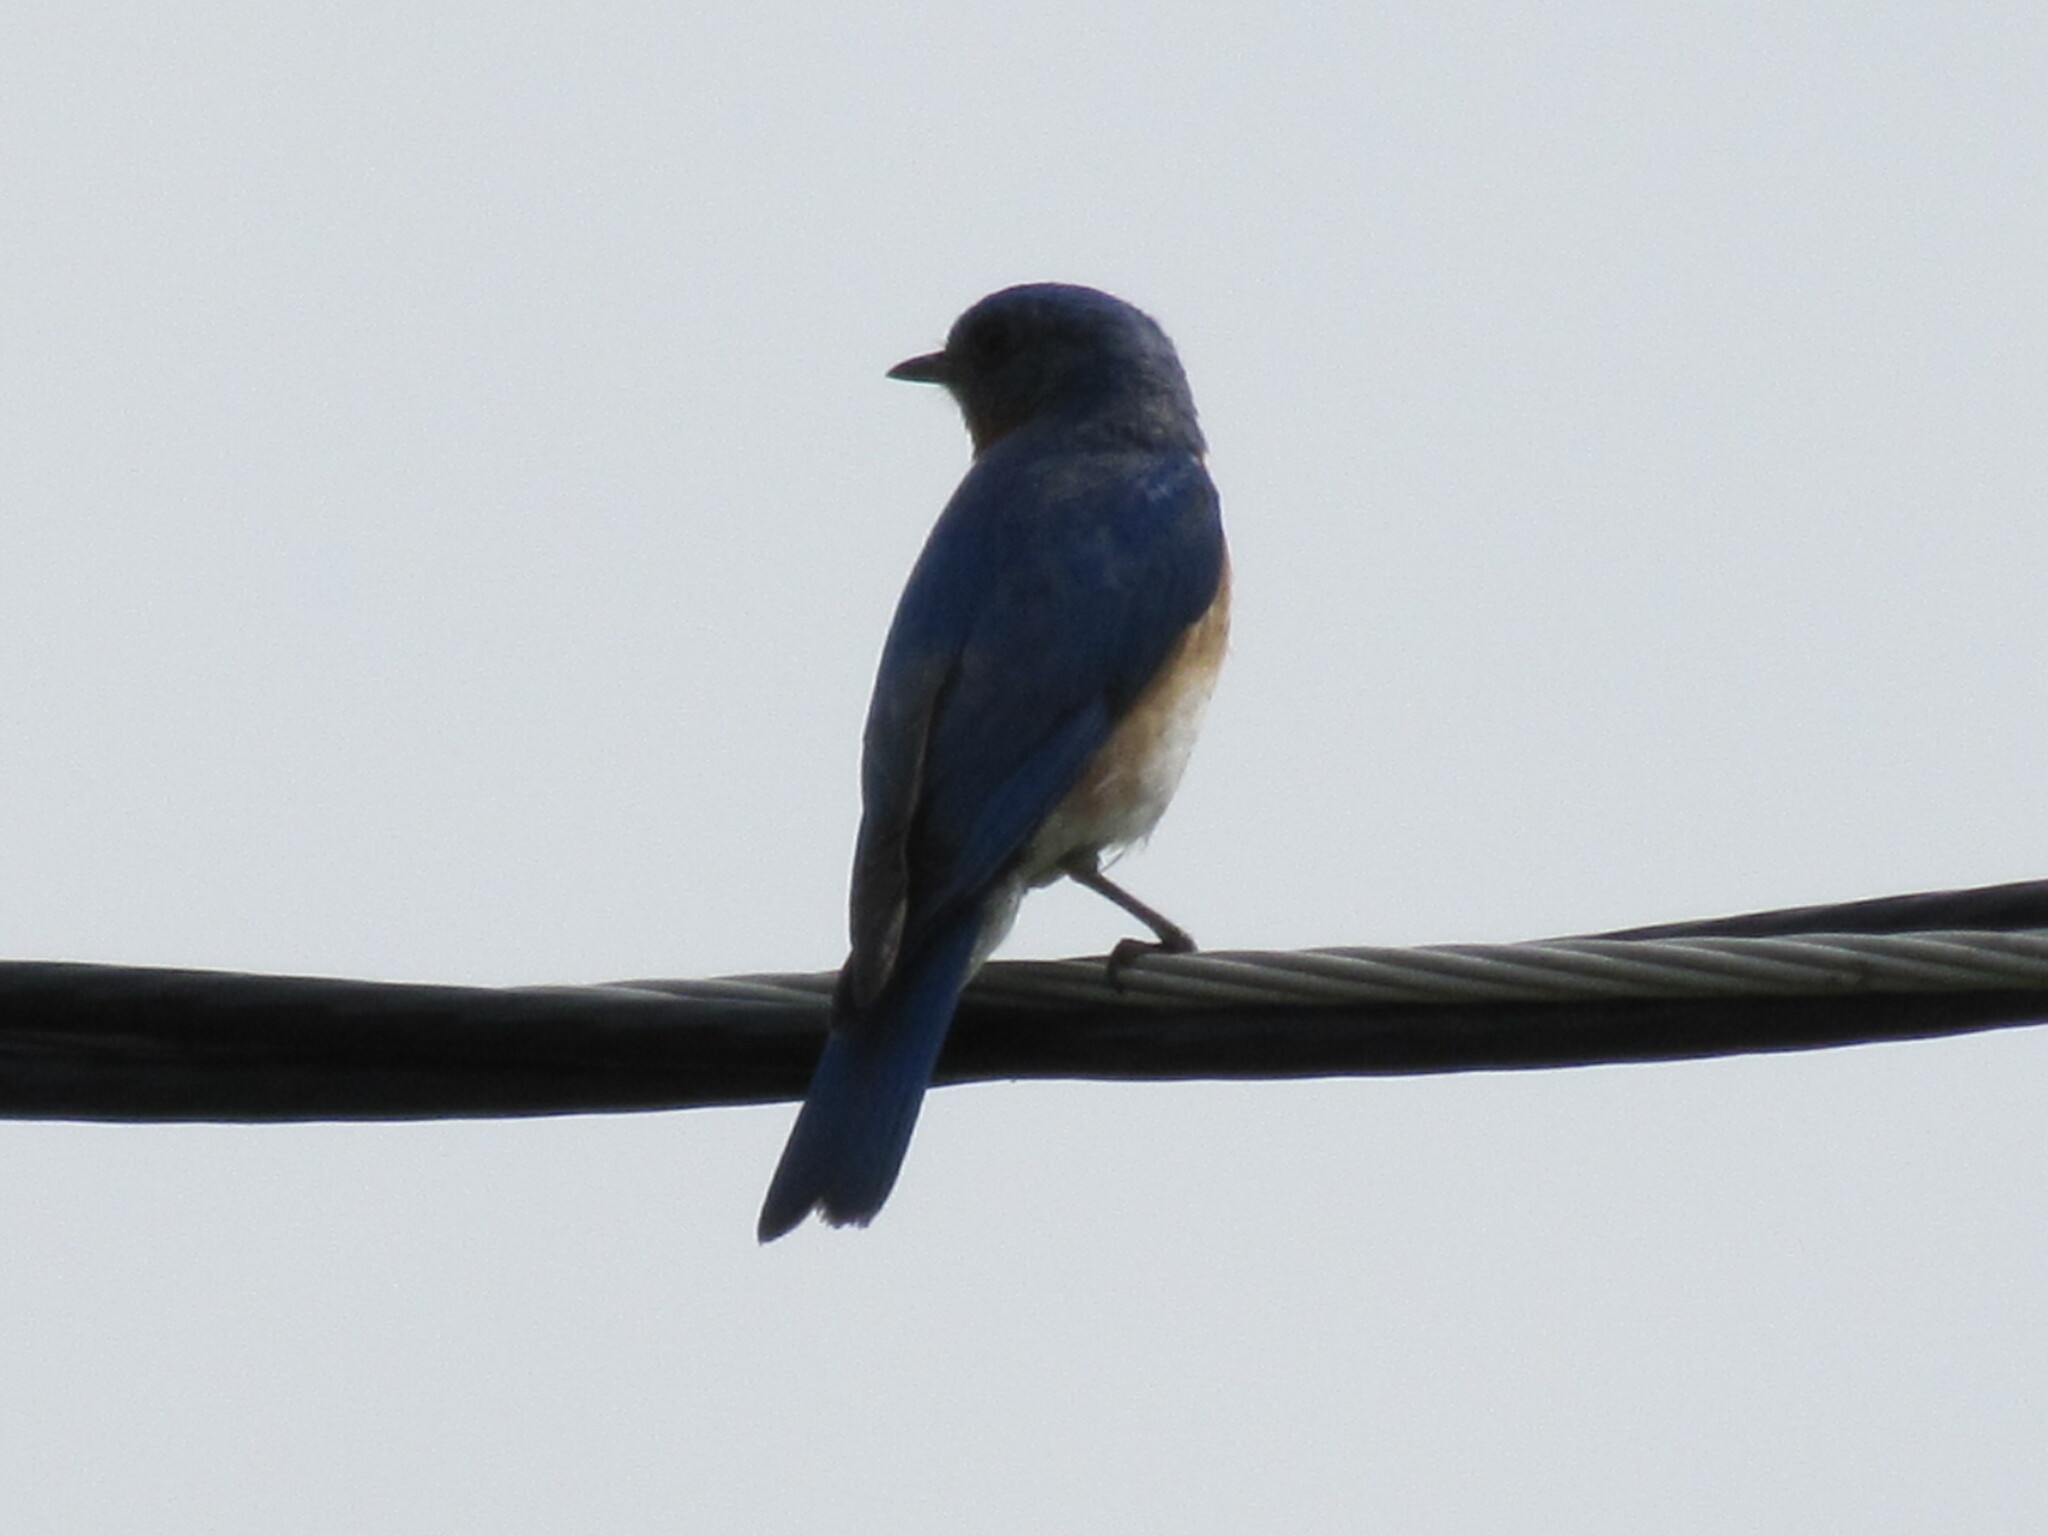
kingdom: Animalia
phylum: Chordata
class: Aves
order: Passeriformes
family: Turdidae
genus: Sialia
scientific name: Sialia sialis
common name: Eastern bluebird
